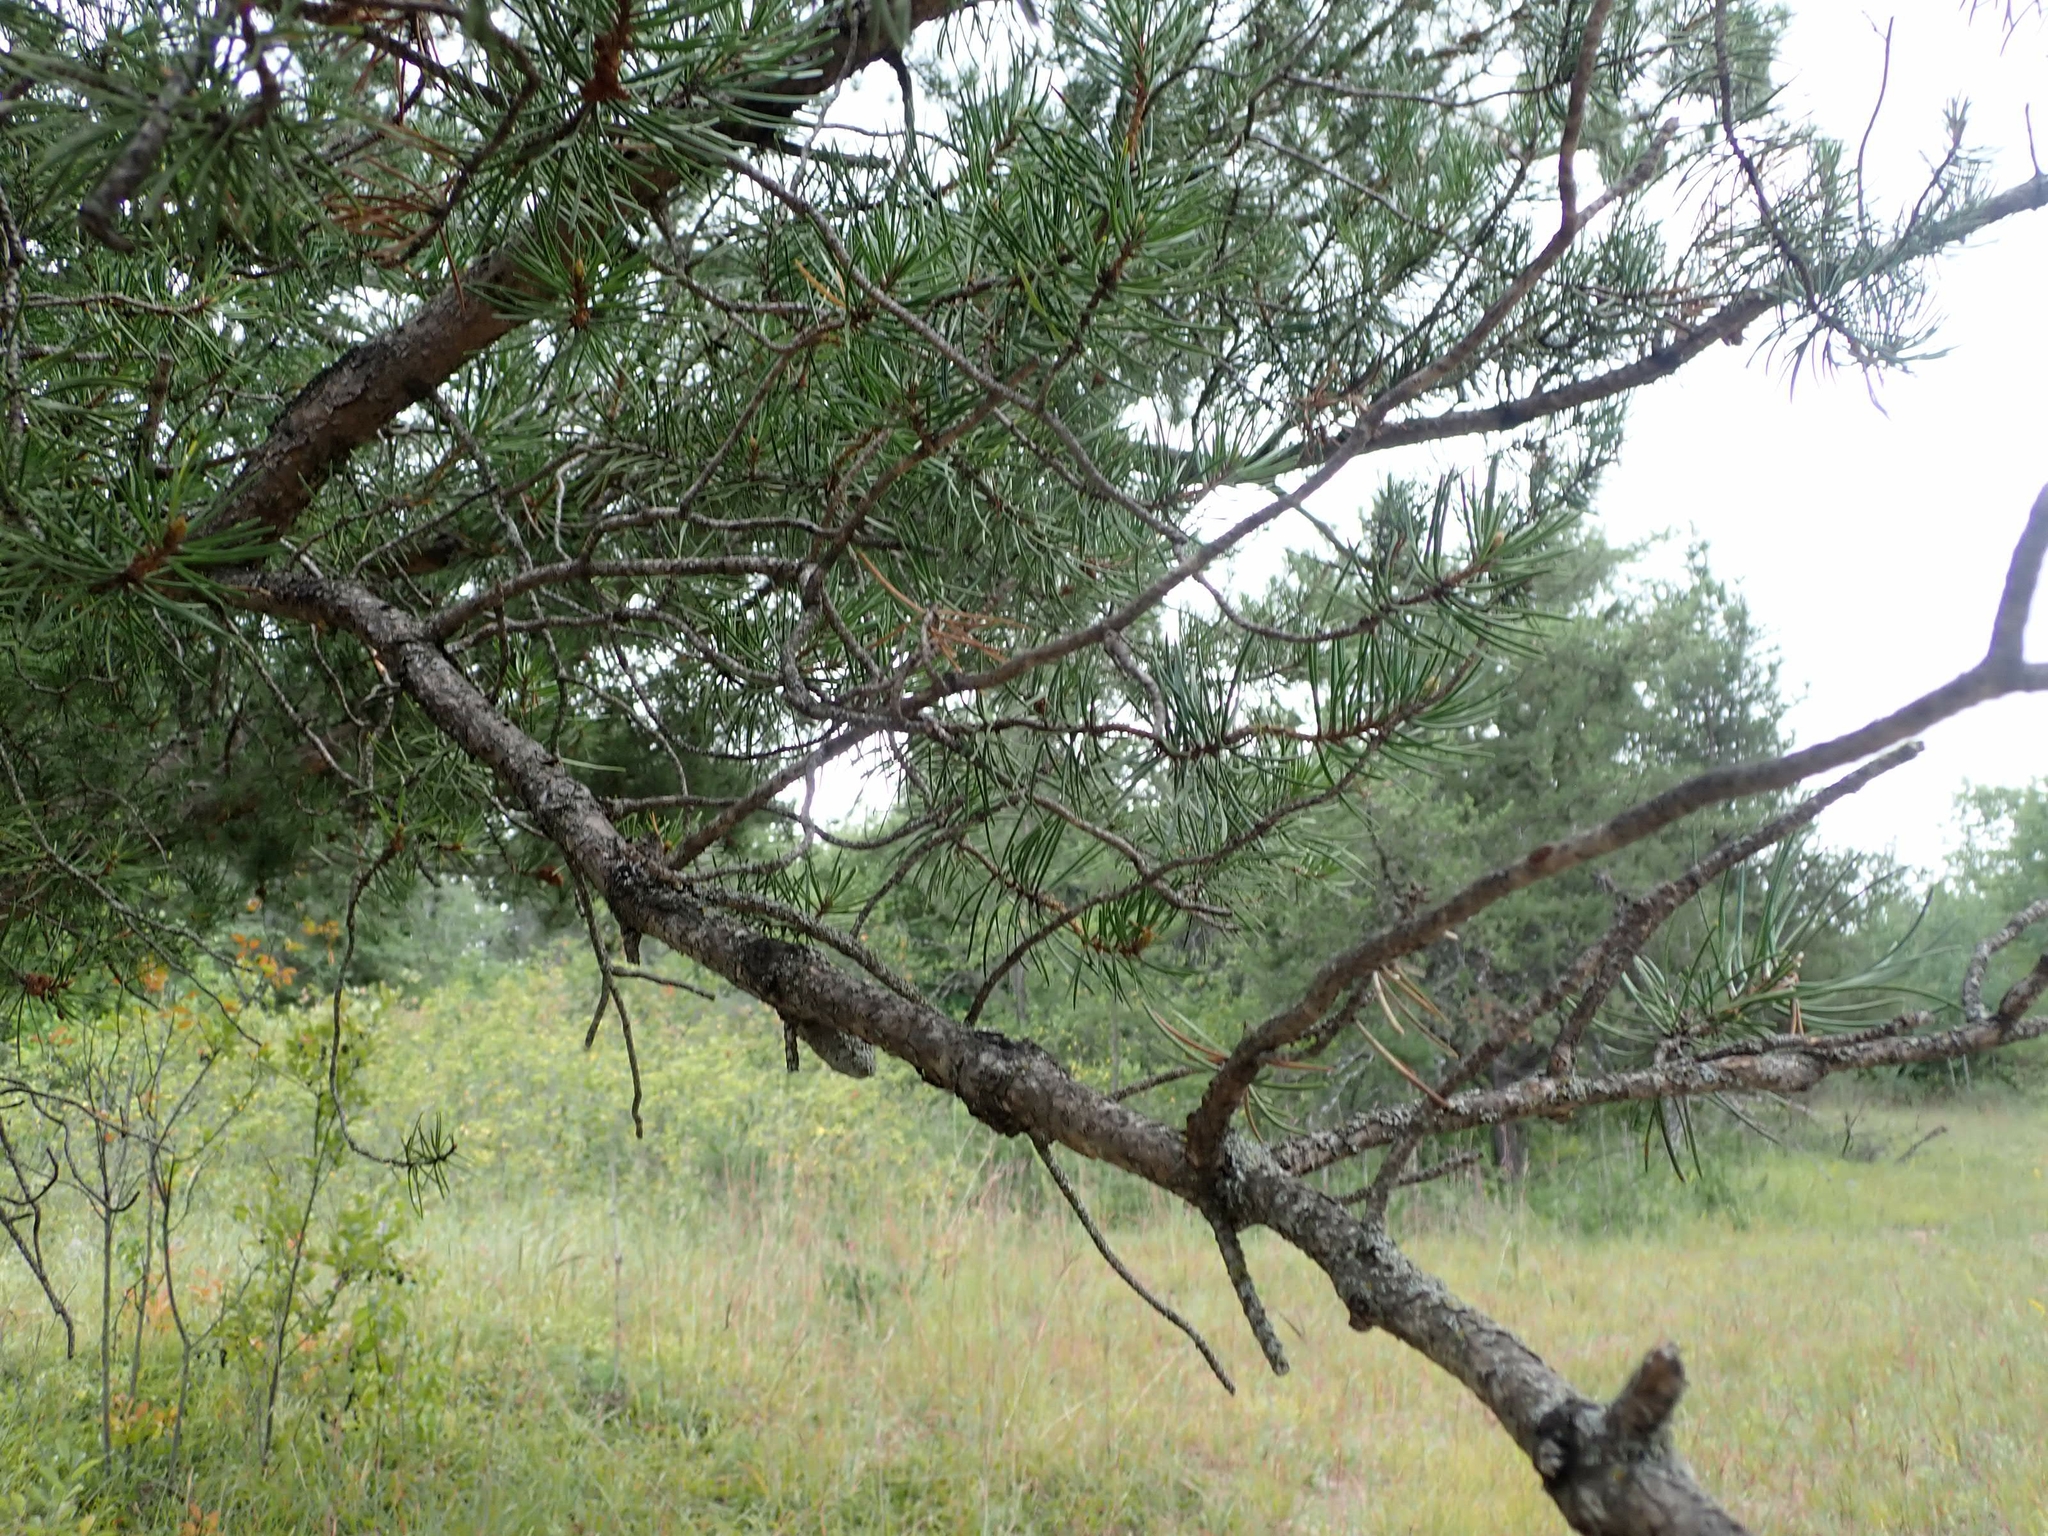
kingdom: Plantae
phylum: Tracheophyta
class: Pinopsida
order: Pinales
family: Pinaceae
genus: Pinus
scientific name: Pinus banksiana
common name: Jack pine
